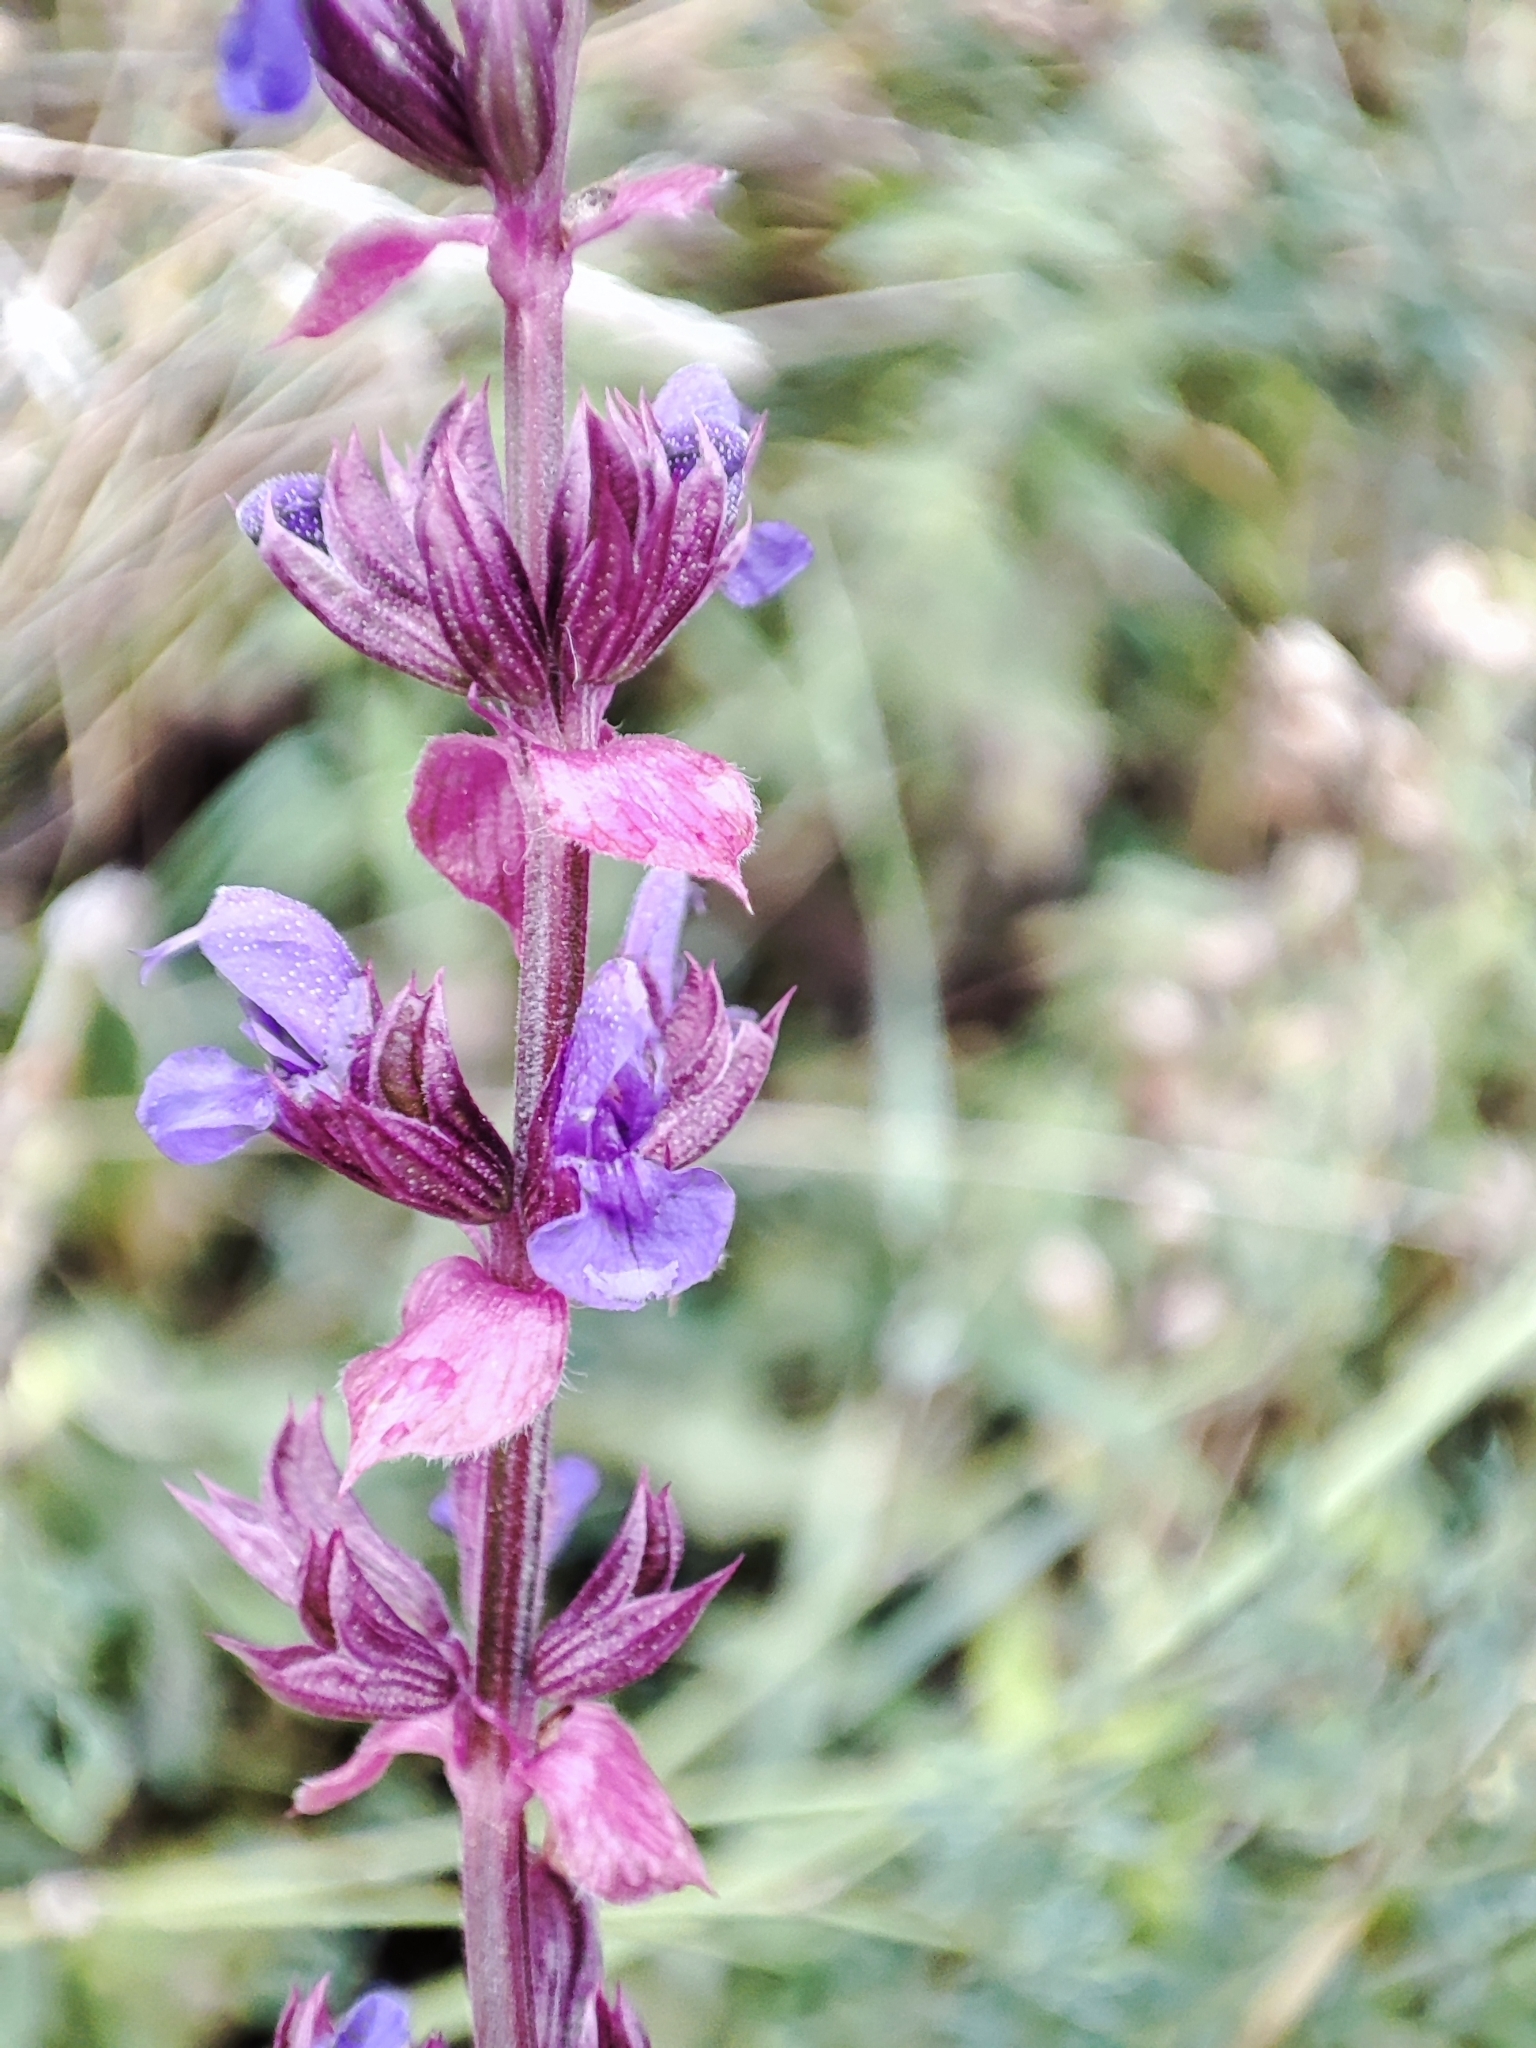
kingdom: Plantae
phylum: Tracheophyta
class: Magnoliopsida
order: Lamiales
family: Lamiaceae
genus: Salvia
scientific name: Salvia nemorosa
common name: Balkan clary
